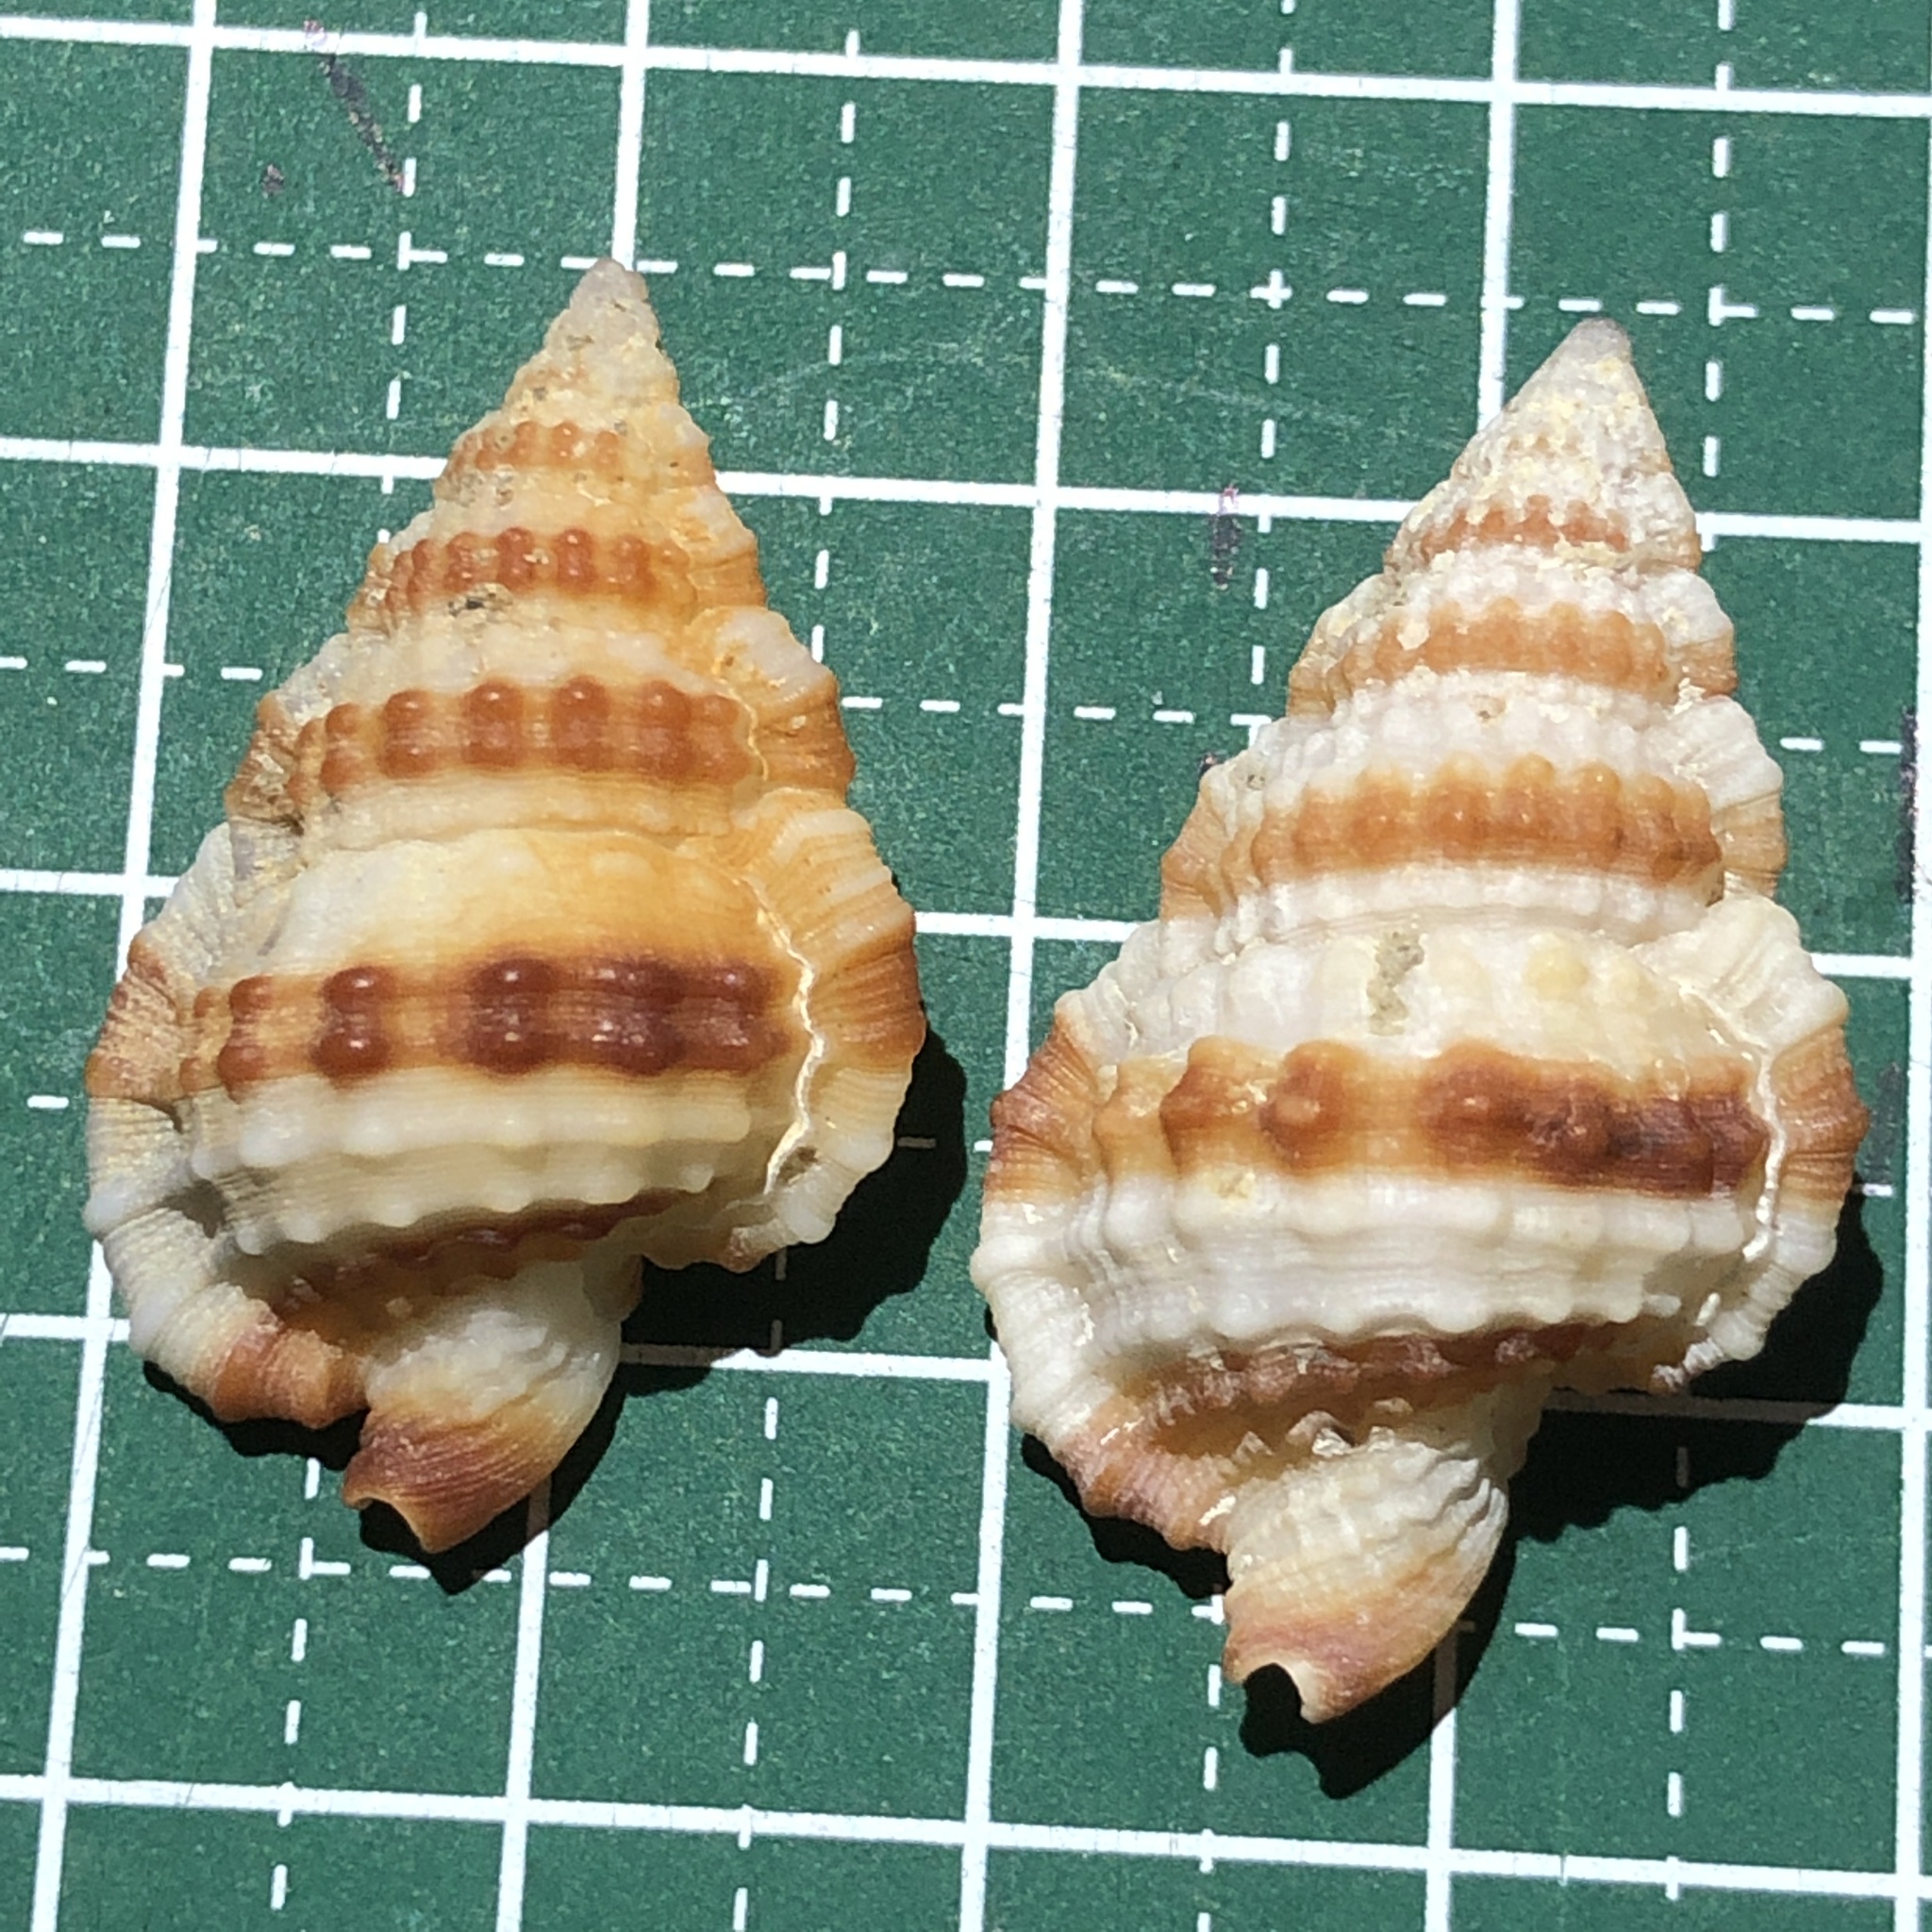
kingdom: Animalia
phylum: Mollusca
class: Gastropoda
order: Littorinimorpha
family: Cymatiidae
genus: Gyrineum
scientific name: Gyrineum gyrinum
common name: Tadpole triton
